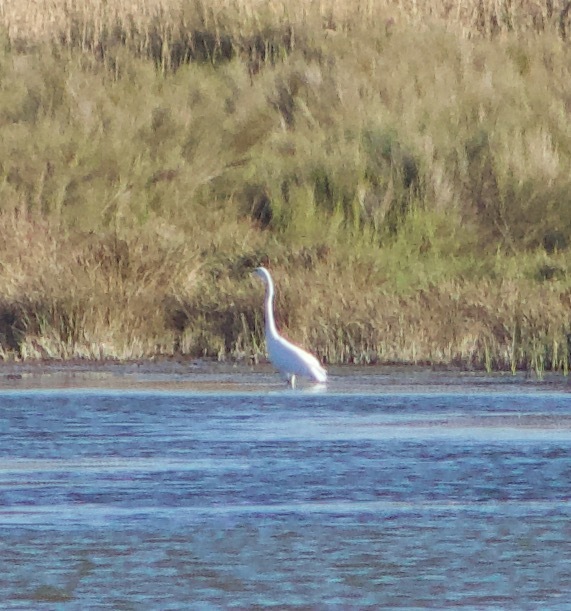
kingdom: Animalia
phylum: Chordata
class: Aves
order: Pelecaniformes
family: Ardeidae
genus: Ardea
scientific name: Ardea alba
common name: Great egret
